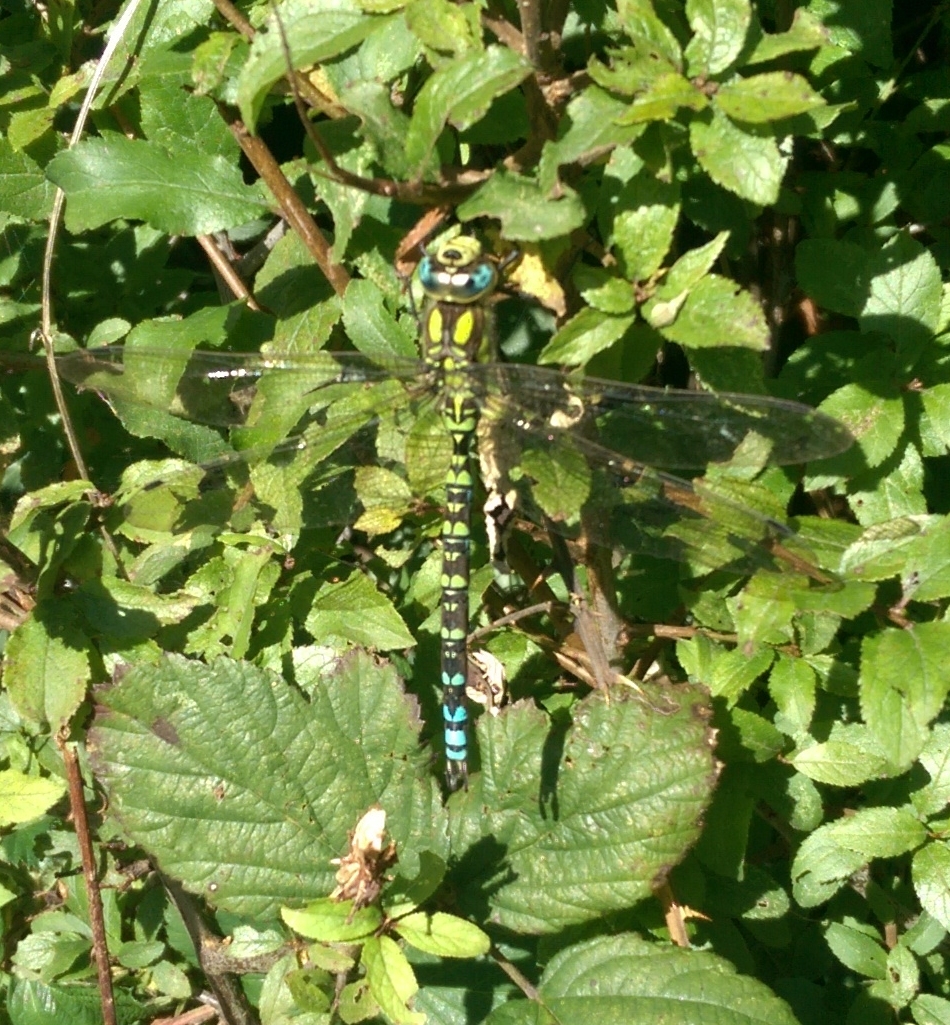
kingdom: Animalia
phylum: Arthropoda
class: Insecta
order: Odonata
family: Aeshnidae
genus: Aeshna
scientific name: Aeshna cyanea
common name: Southern hawker
